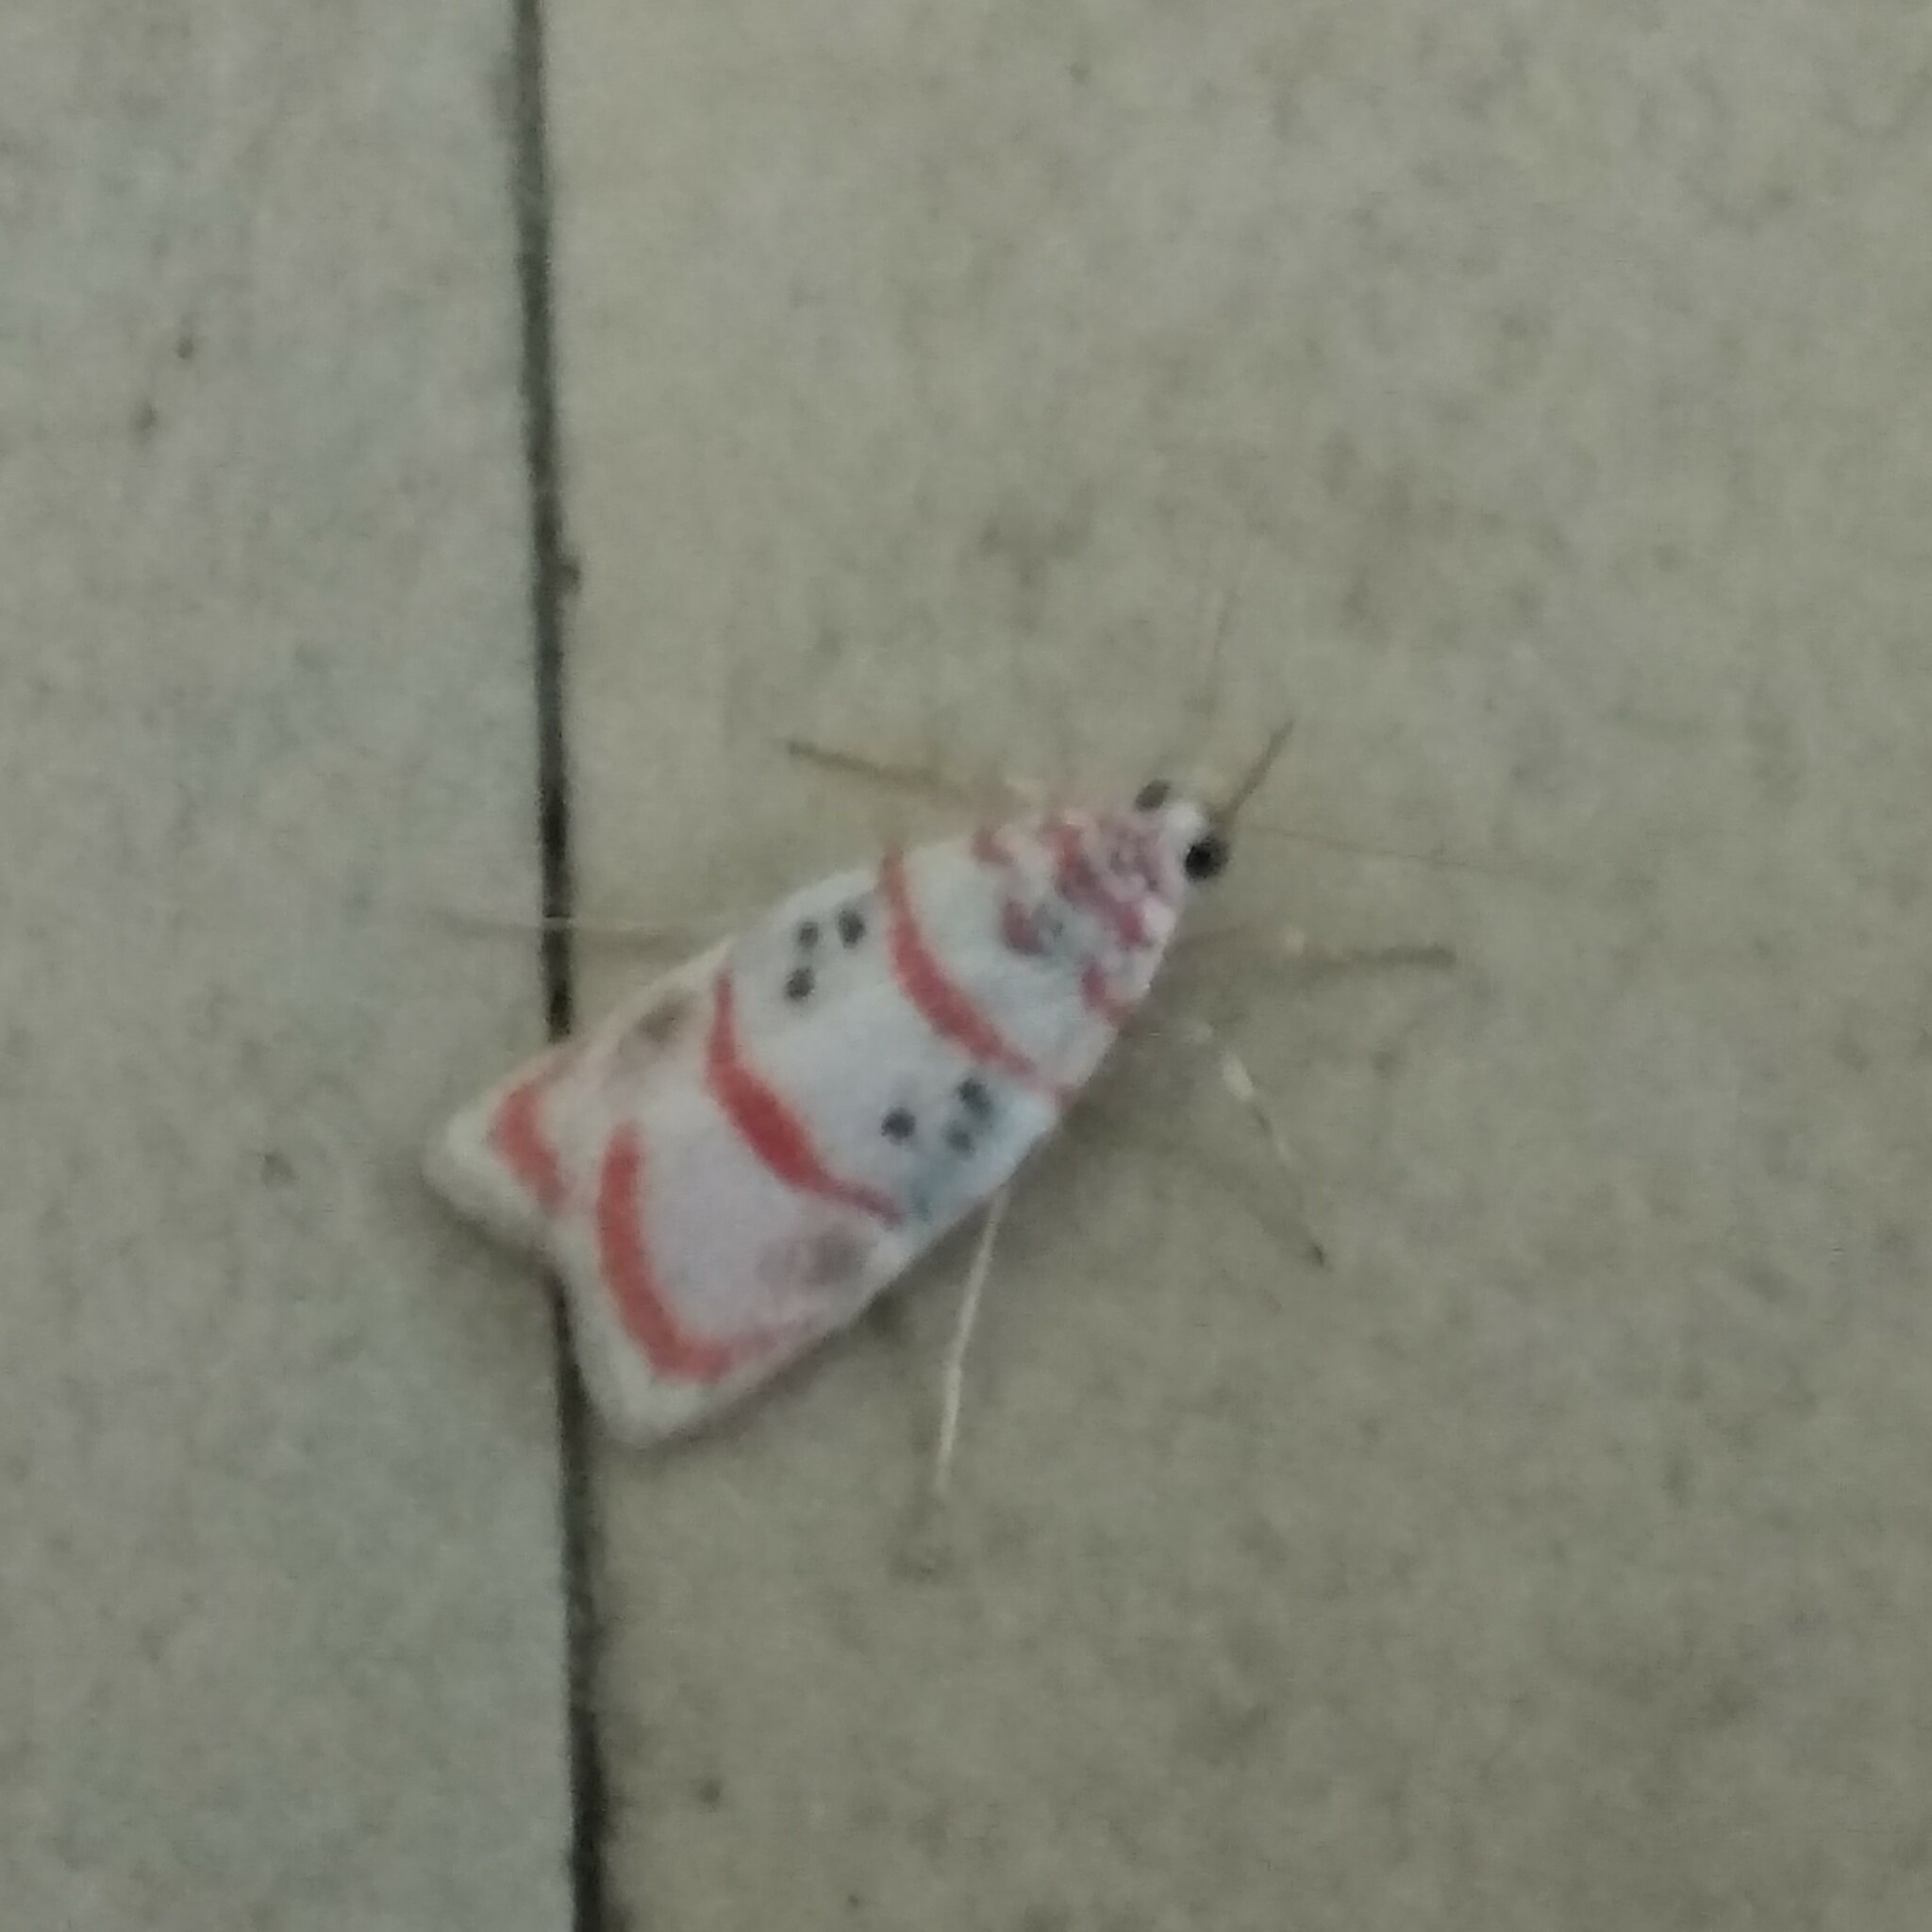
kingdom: Animalia
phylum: Arthropoda
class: Insecta
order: Lepidoptera
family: Erebidae
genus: Cyana
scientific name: Cyana obliquilineata
